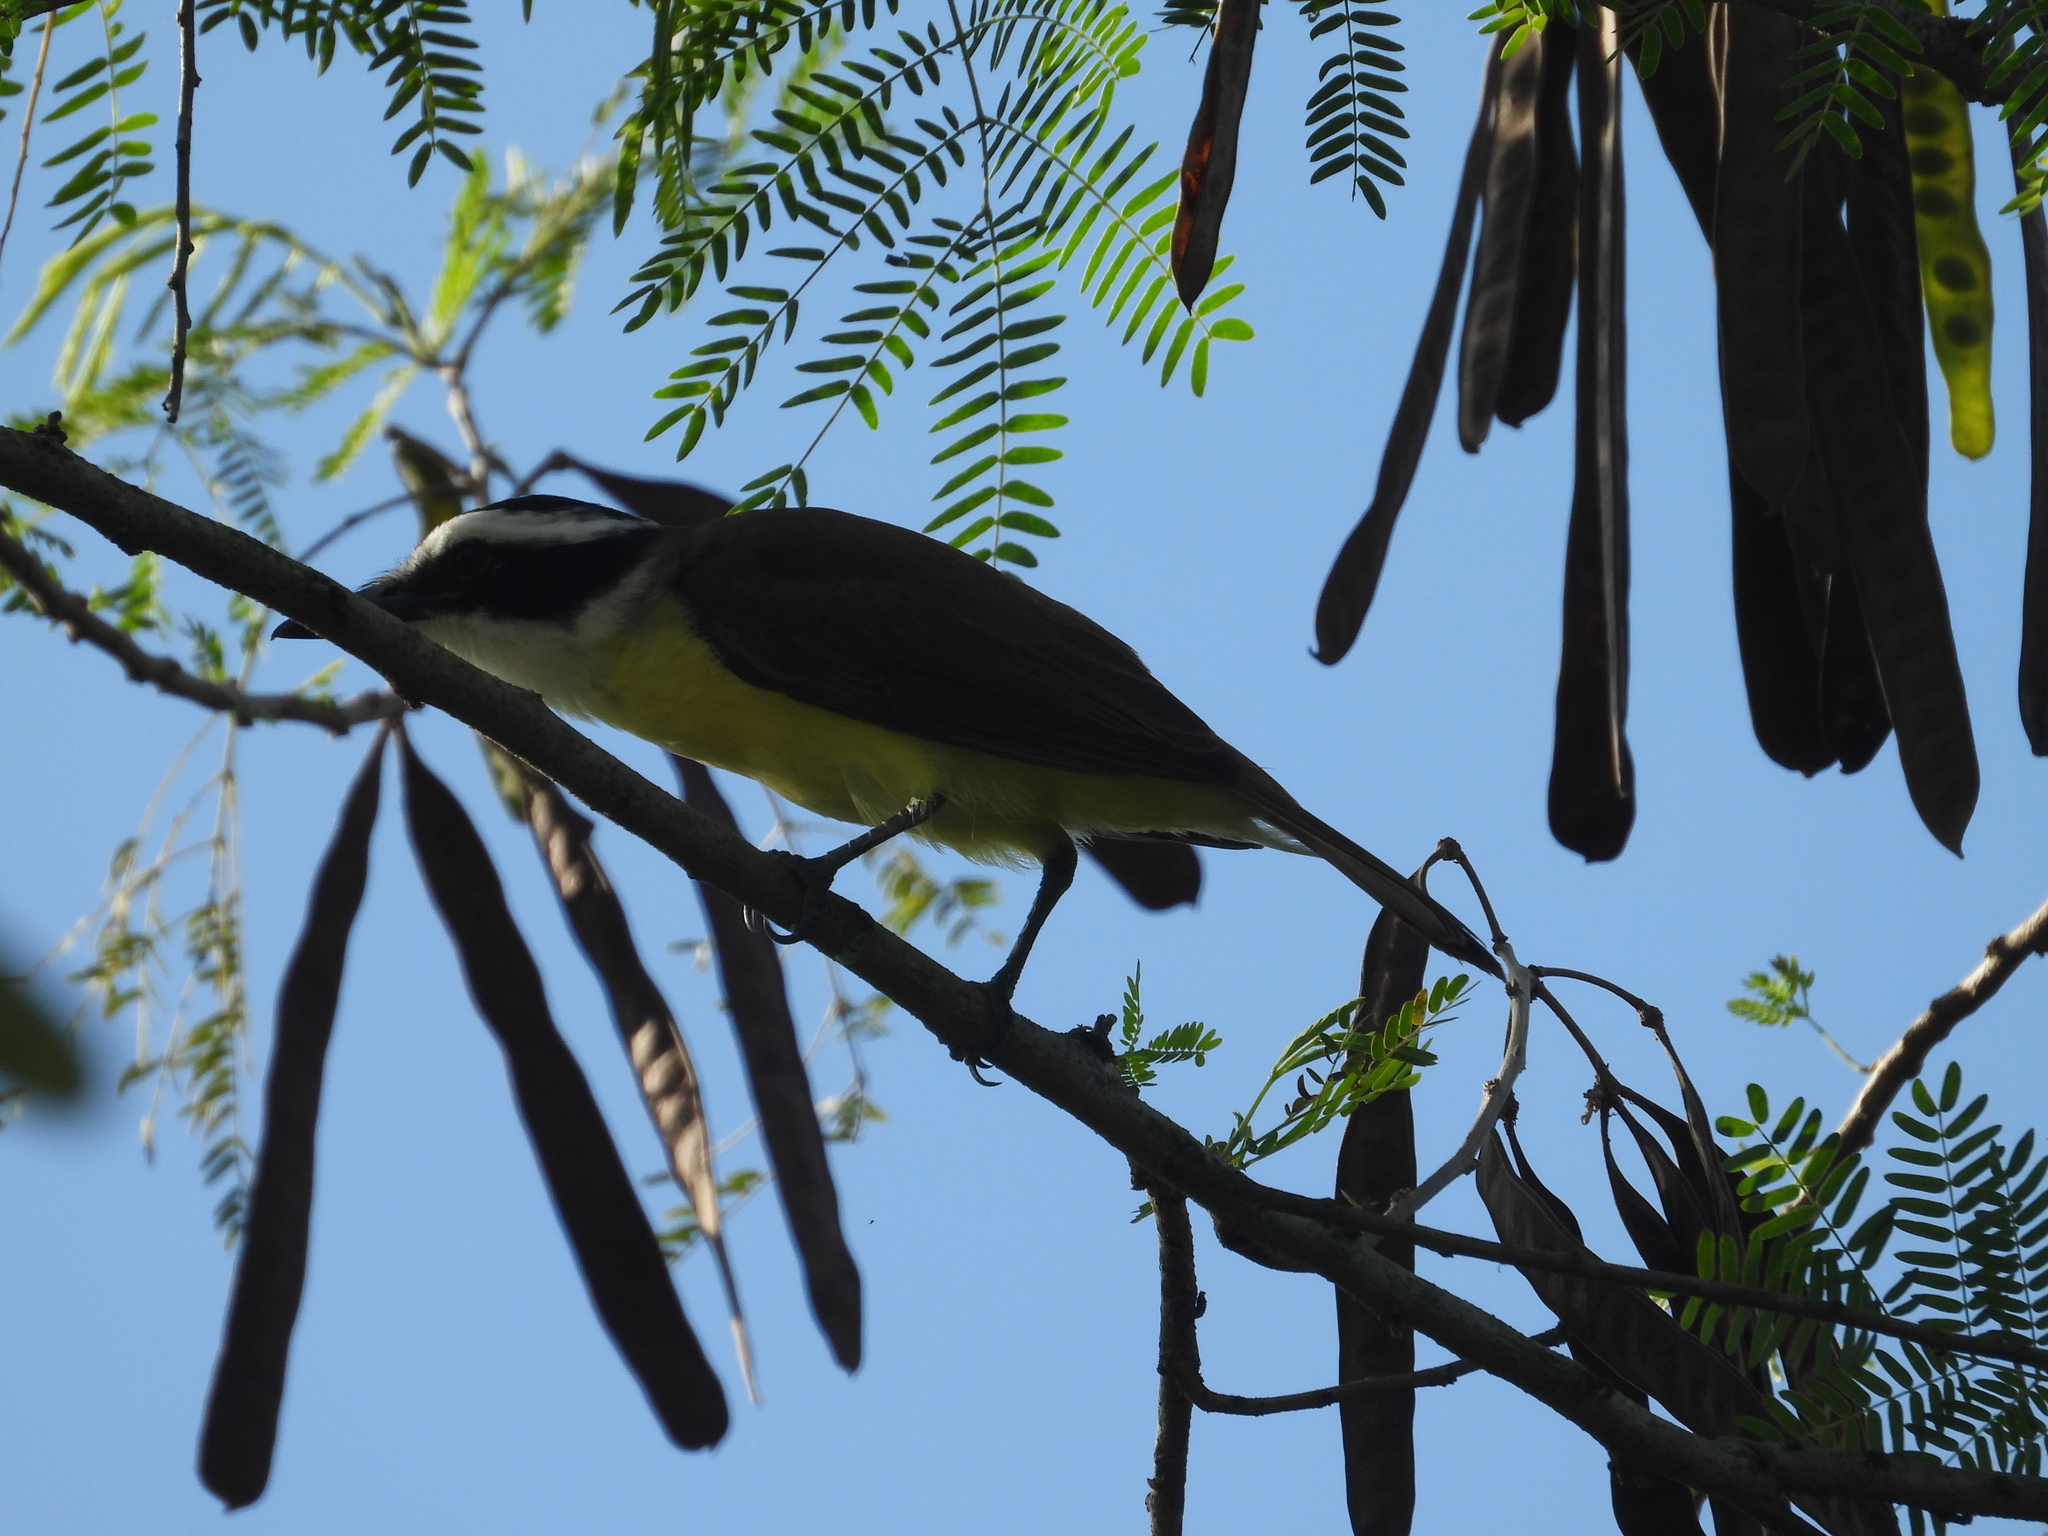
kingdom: Animalia
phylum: Chordata
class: Aves
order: Passeriformes
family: Tyrannidae
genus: Pitangus
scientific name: Pitangus sulphuratus
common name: Great kiskadee
